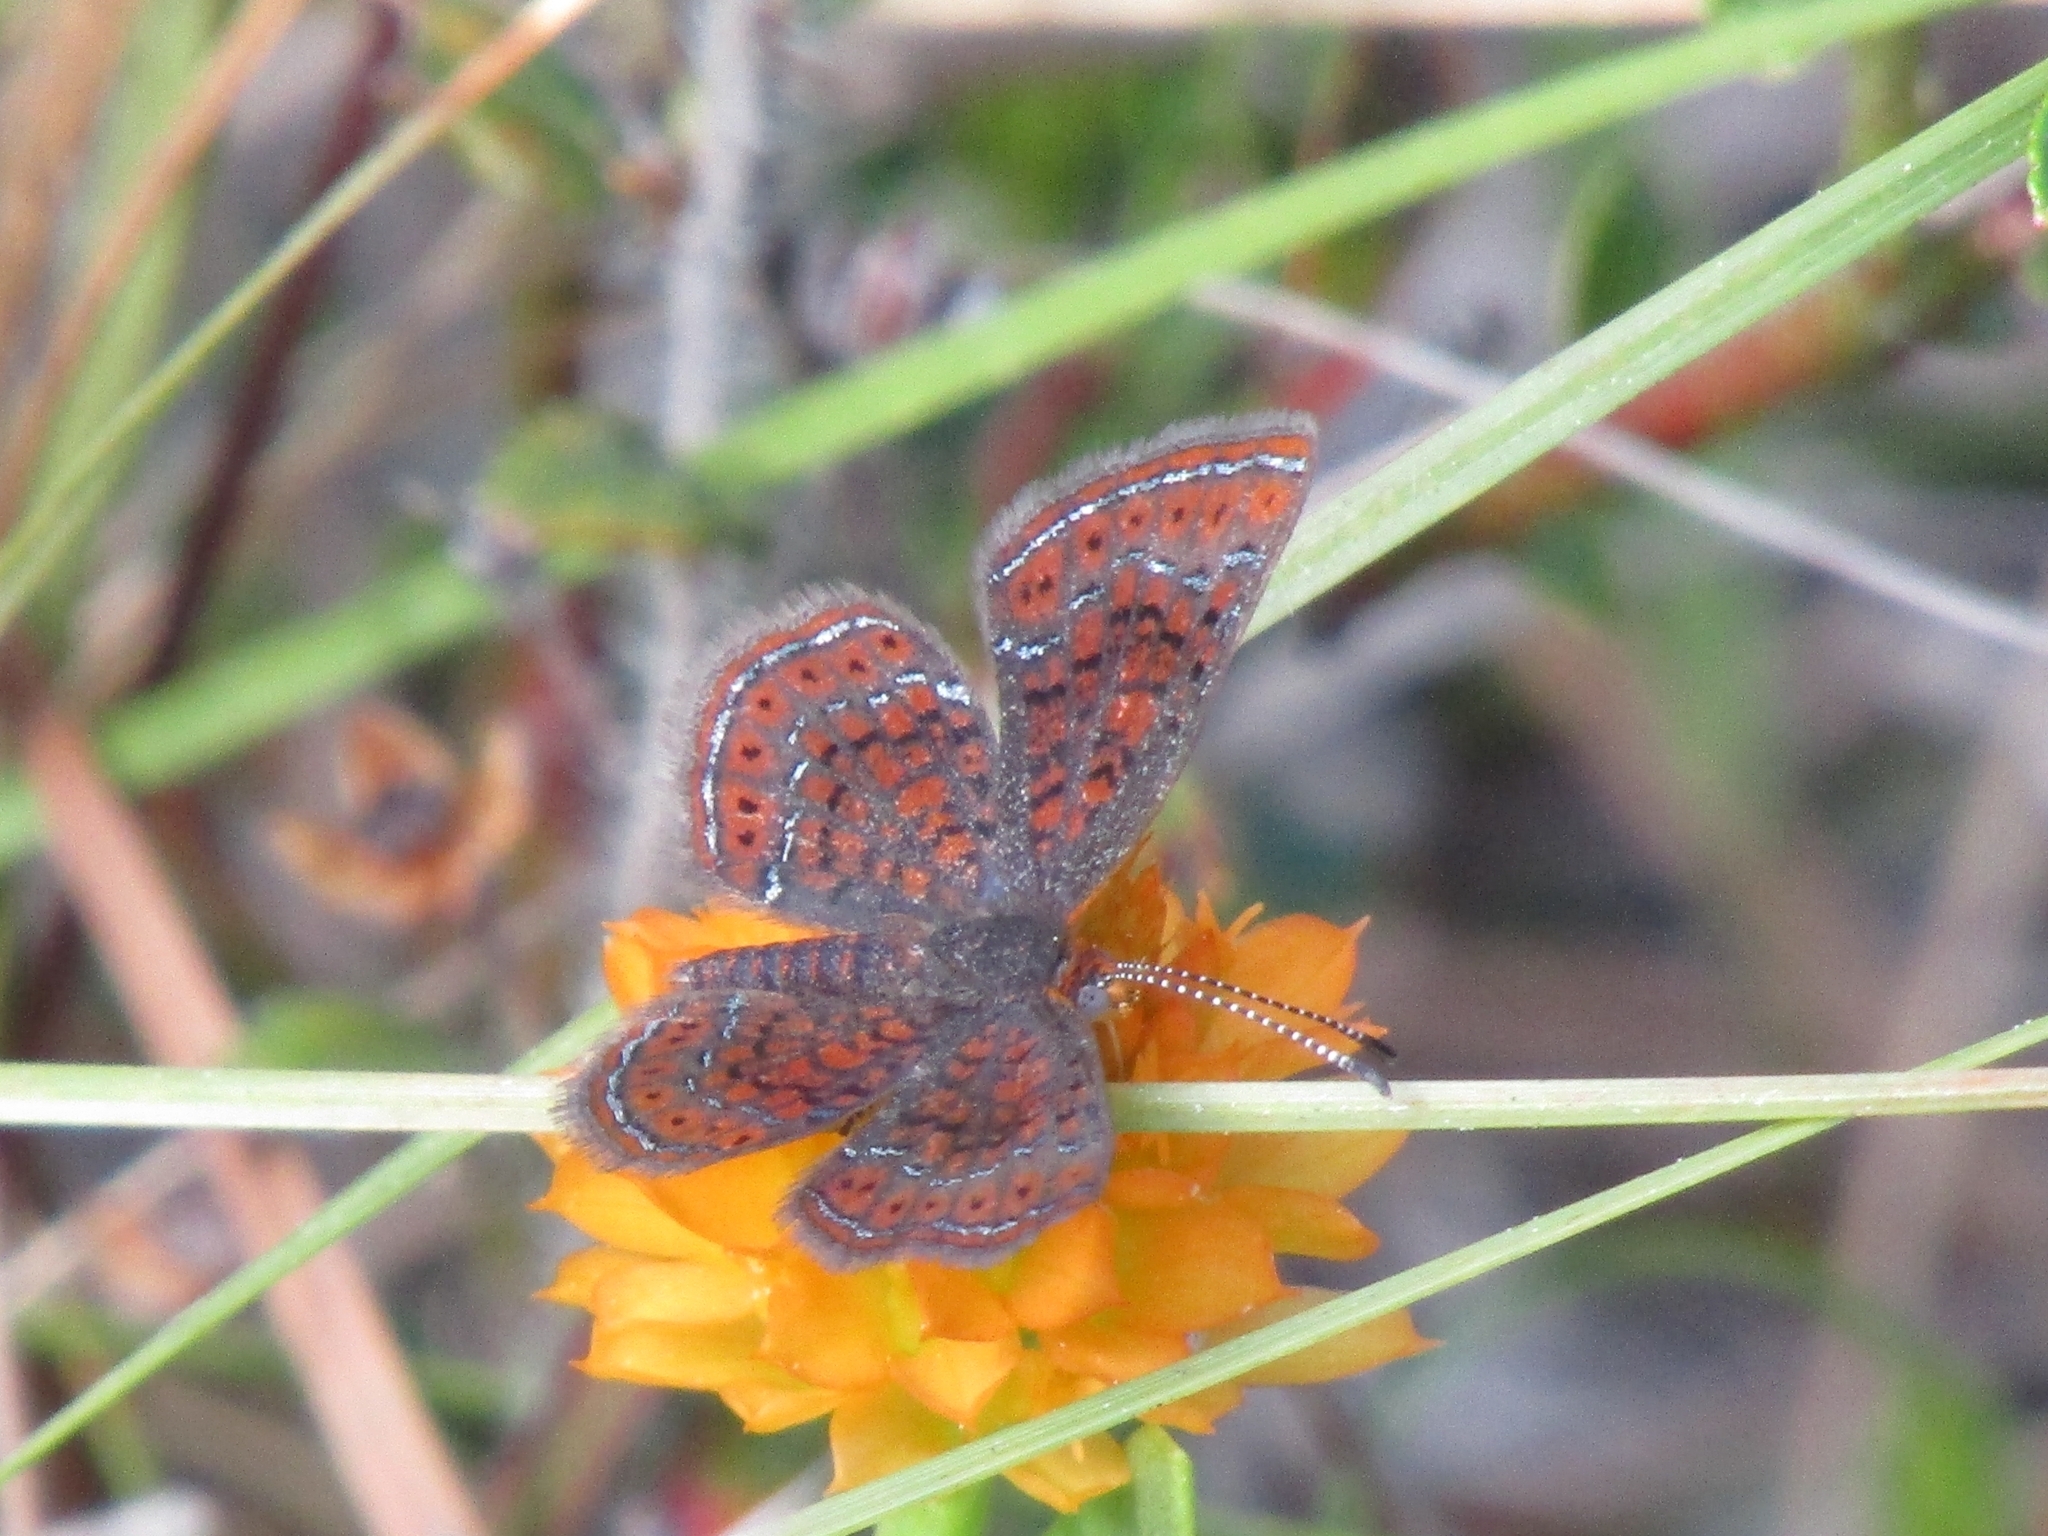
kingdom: Animalia
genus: Calephelis
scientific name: Calephelis virginiensis
